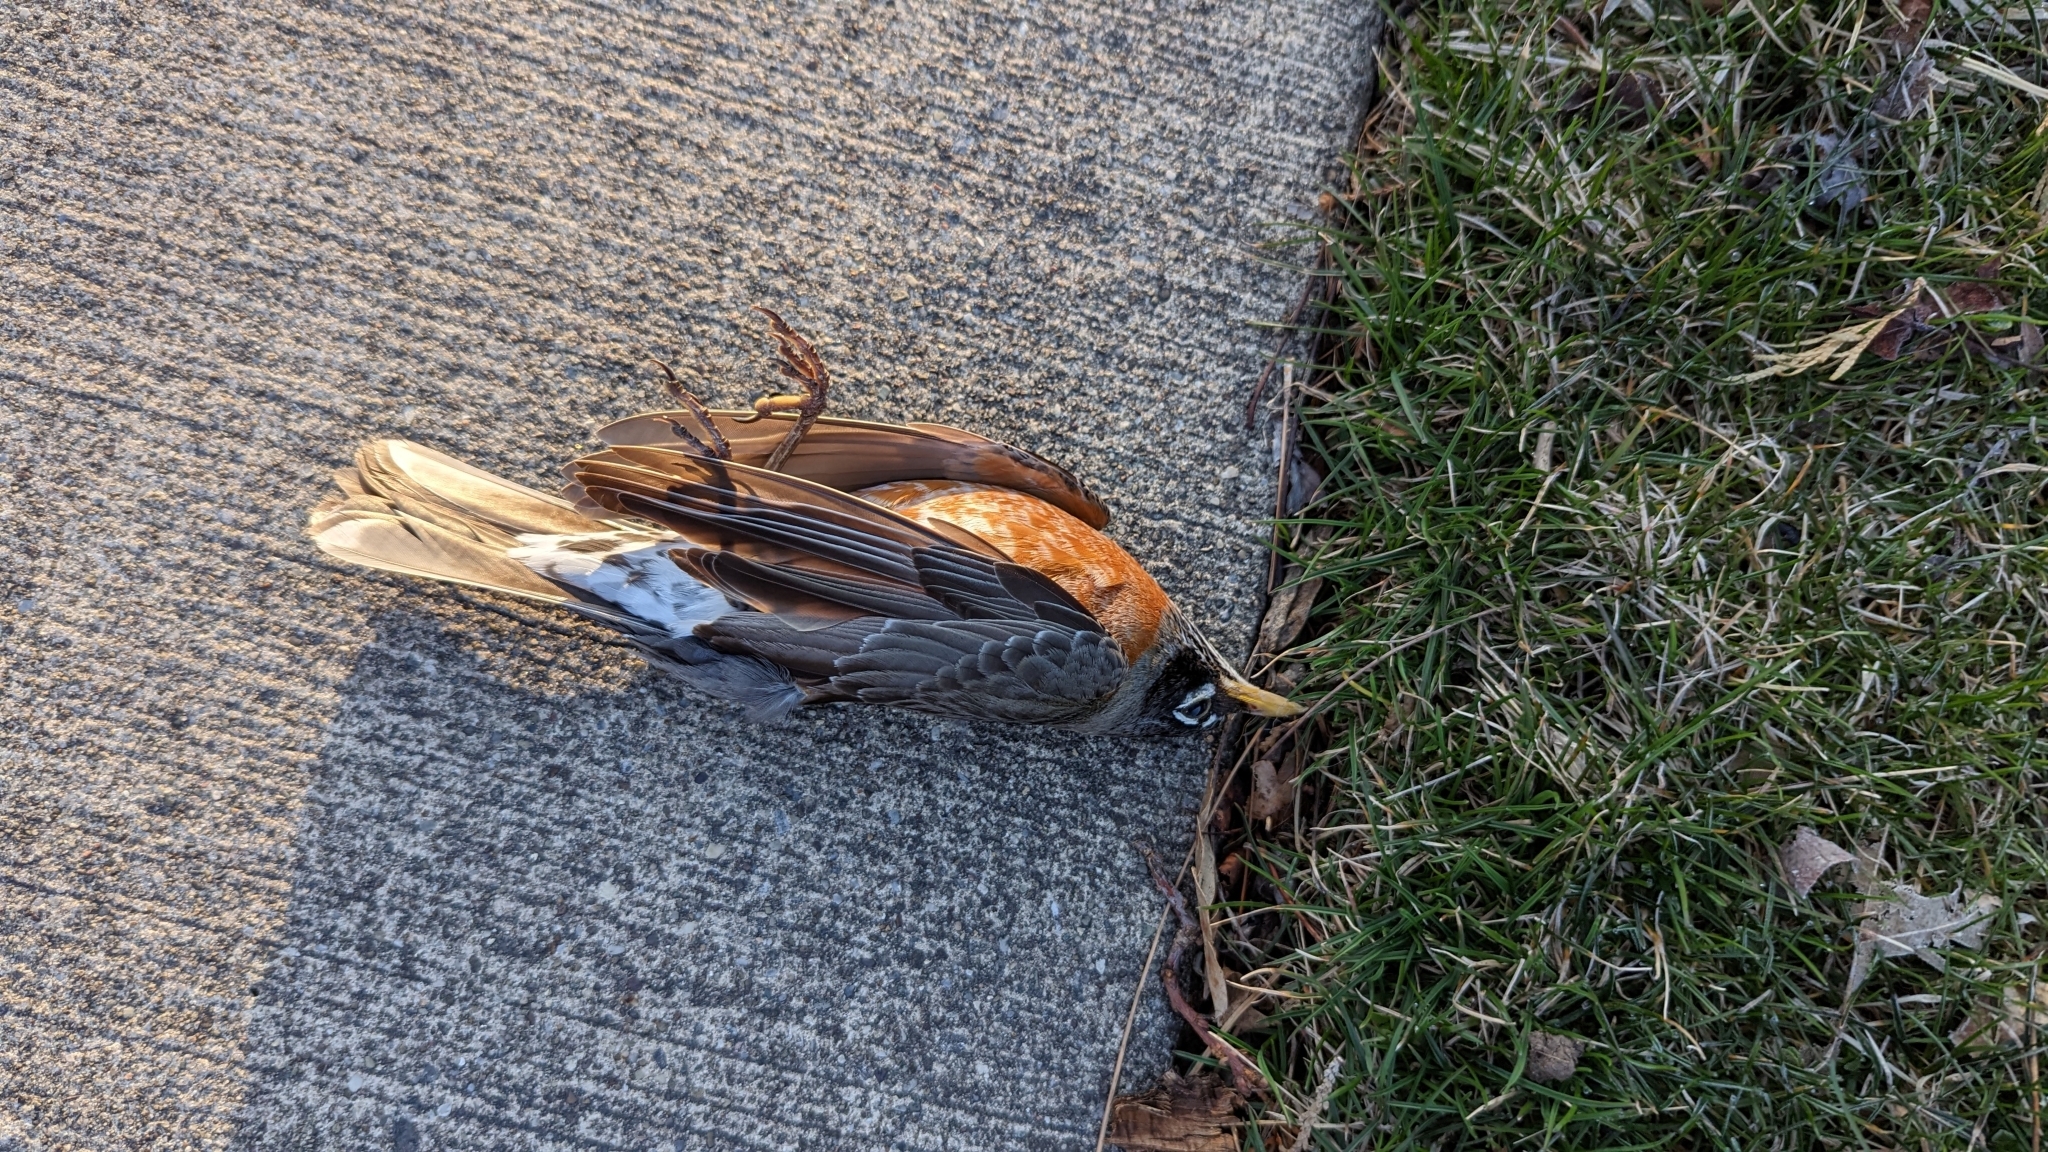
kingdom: Animalia
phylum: Chordata
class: Aves
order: Passeriformes
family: Turdidae
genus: Turdus
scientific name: Turdus migratorius
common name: American robin
